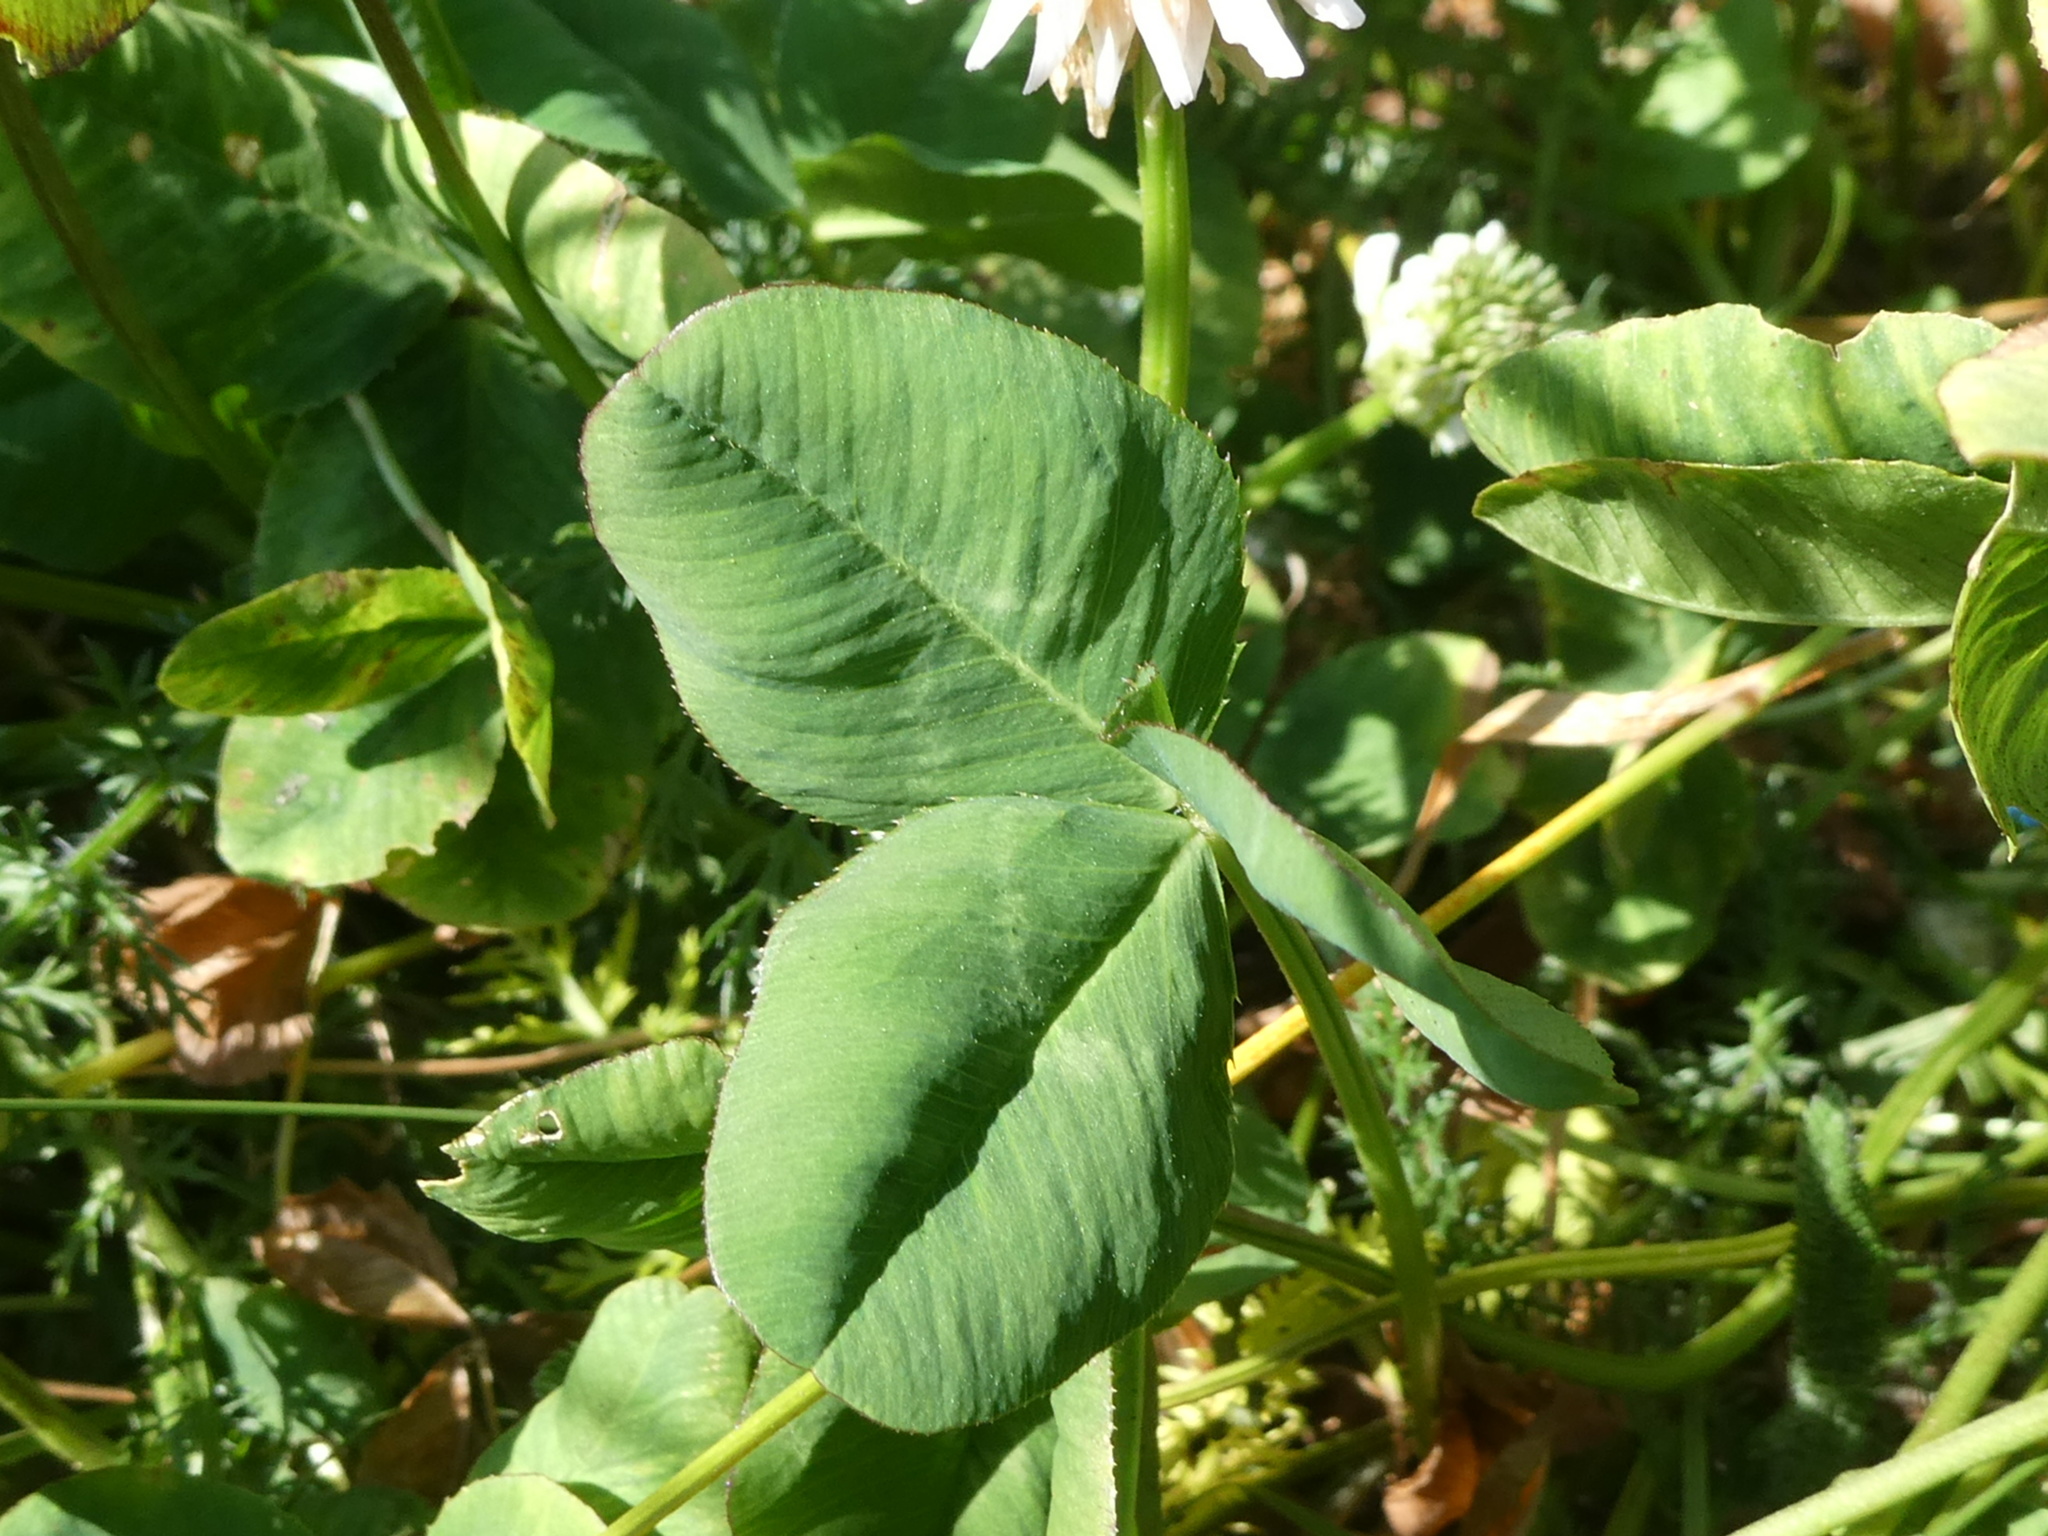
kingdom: Plantae
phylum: Tracheophyta
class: Magnoliopsida
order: Fabales
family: Fabaceae
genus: Trifolium
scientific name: Trifolium repens
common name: White clover
